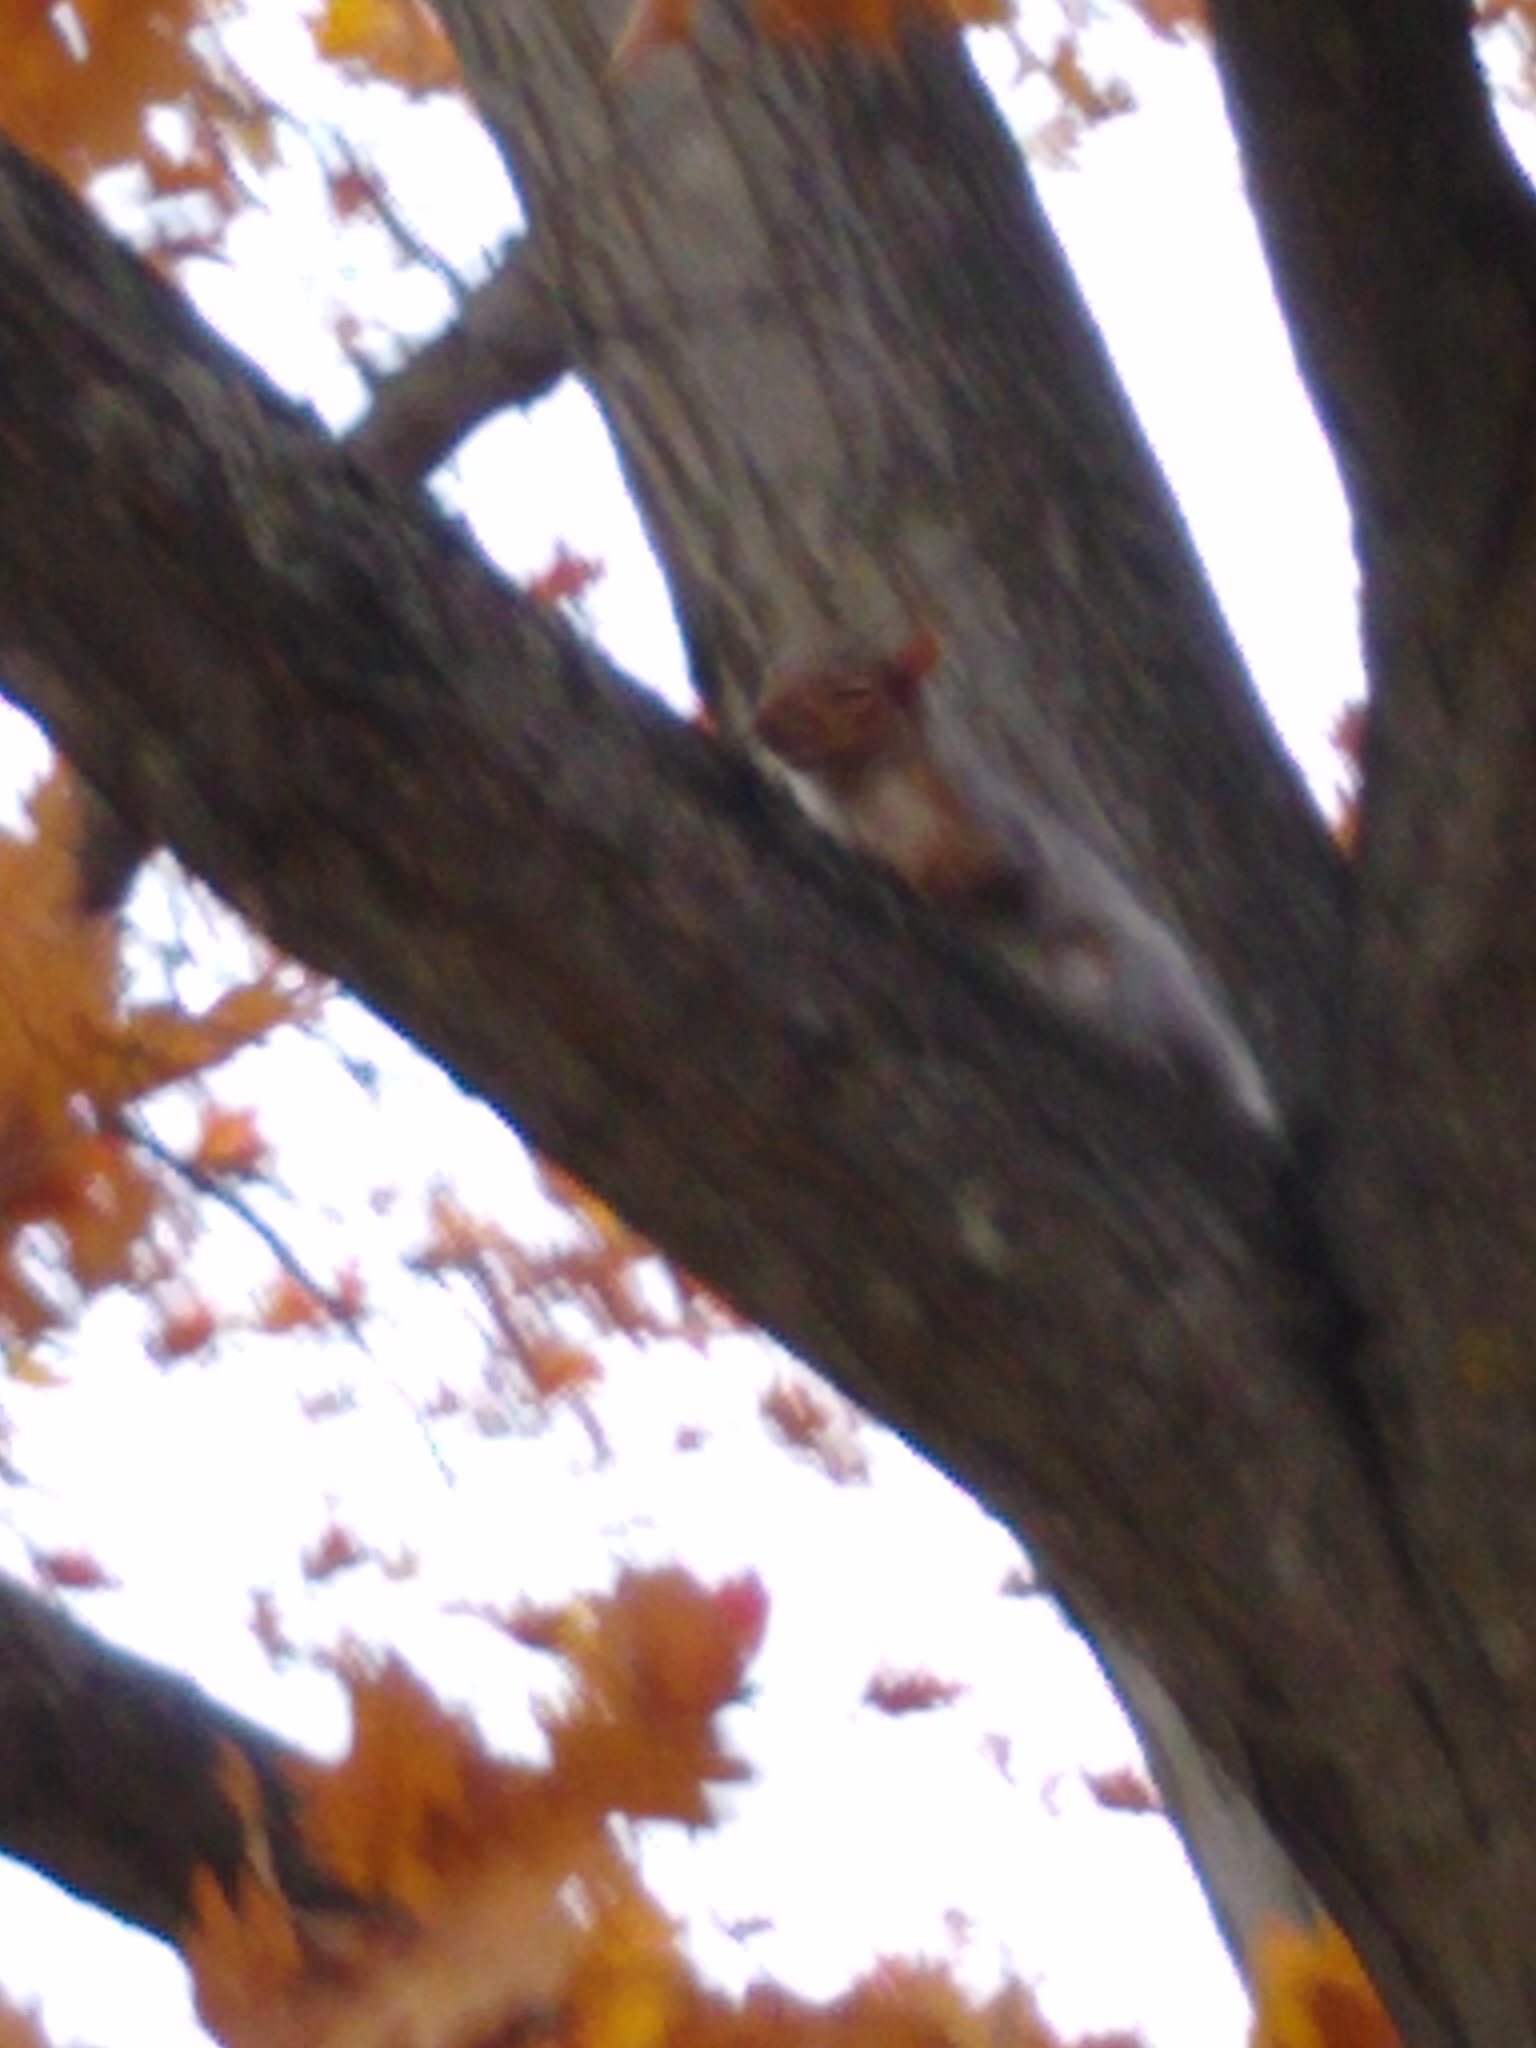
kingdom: Animalia
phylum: Chordata
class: Mammalia
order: Rodentia
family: Sciuridae
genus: Sciurus
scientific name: Sciurus carolinensis
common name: Eastern gray squirrel
